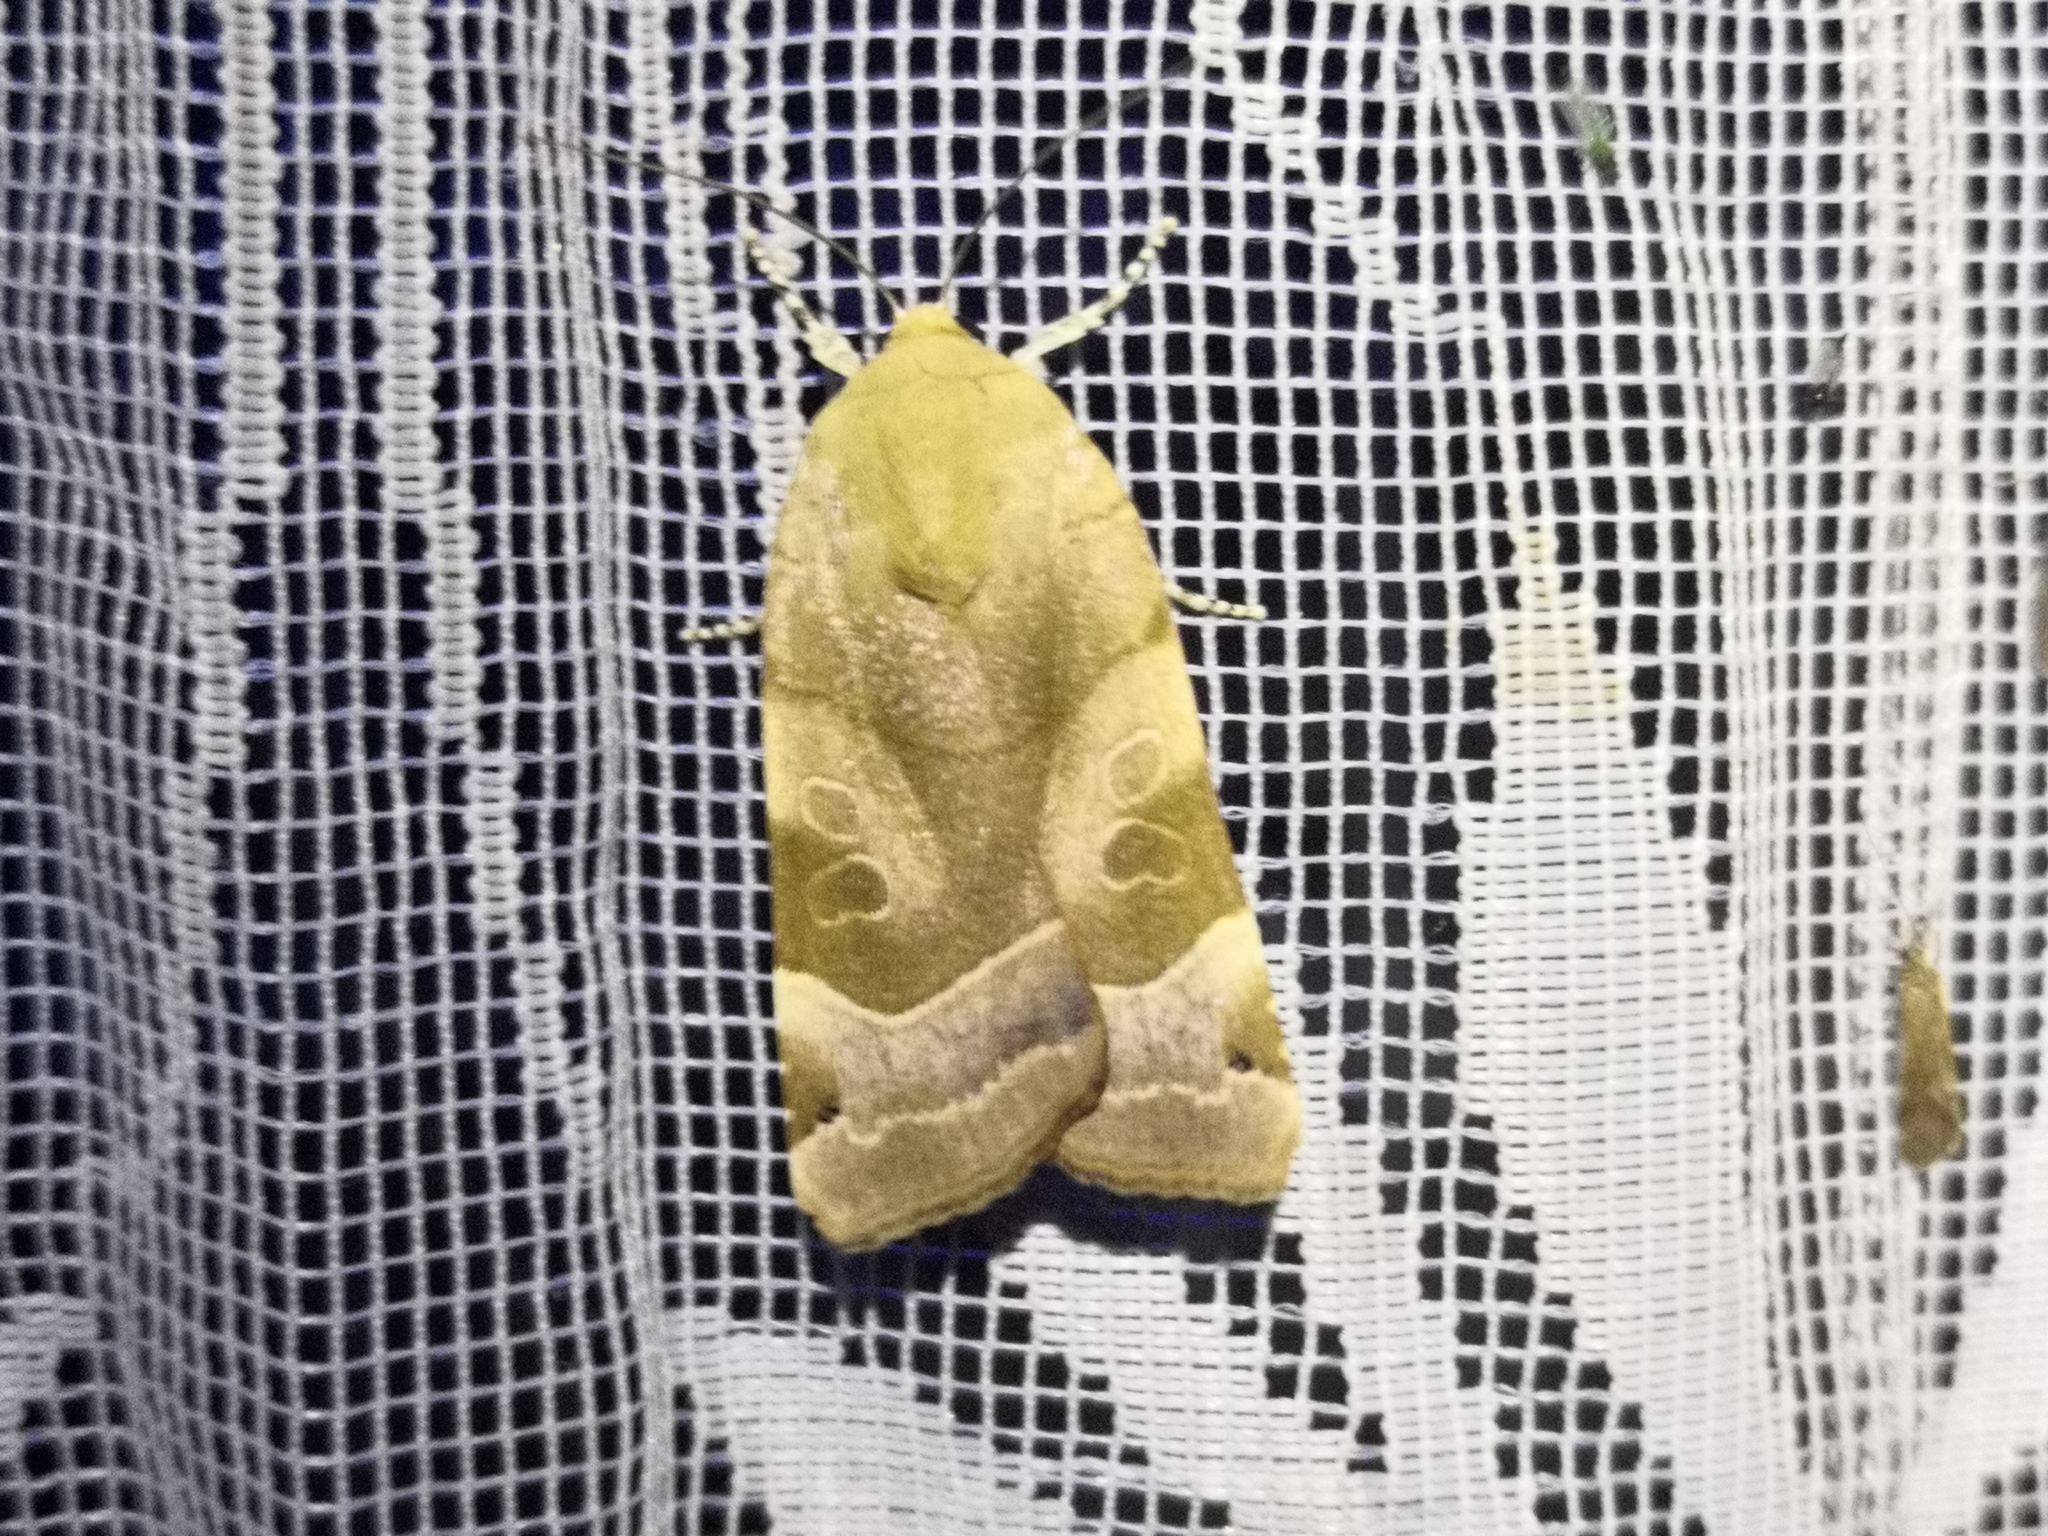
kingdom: Animalia
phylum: Arthropoda
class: Insecta
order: Lepidoptera
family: Noctuidae
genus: Noctua
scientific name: Noctua fimbriata
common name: Broad-bordered yellow underwing
